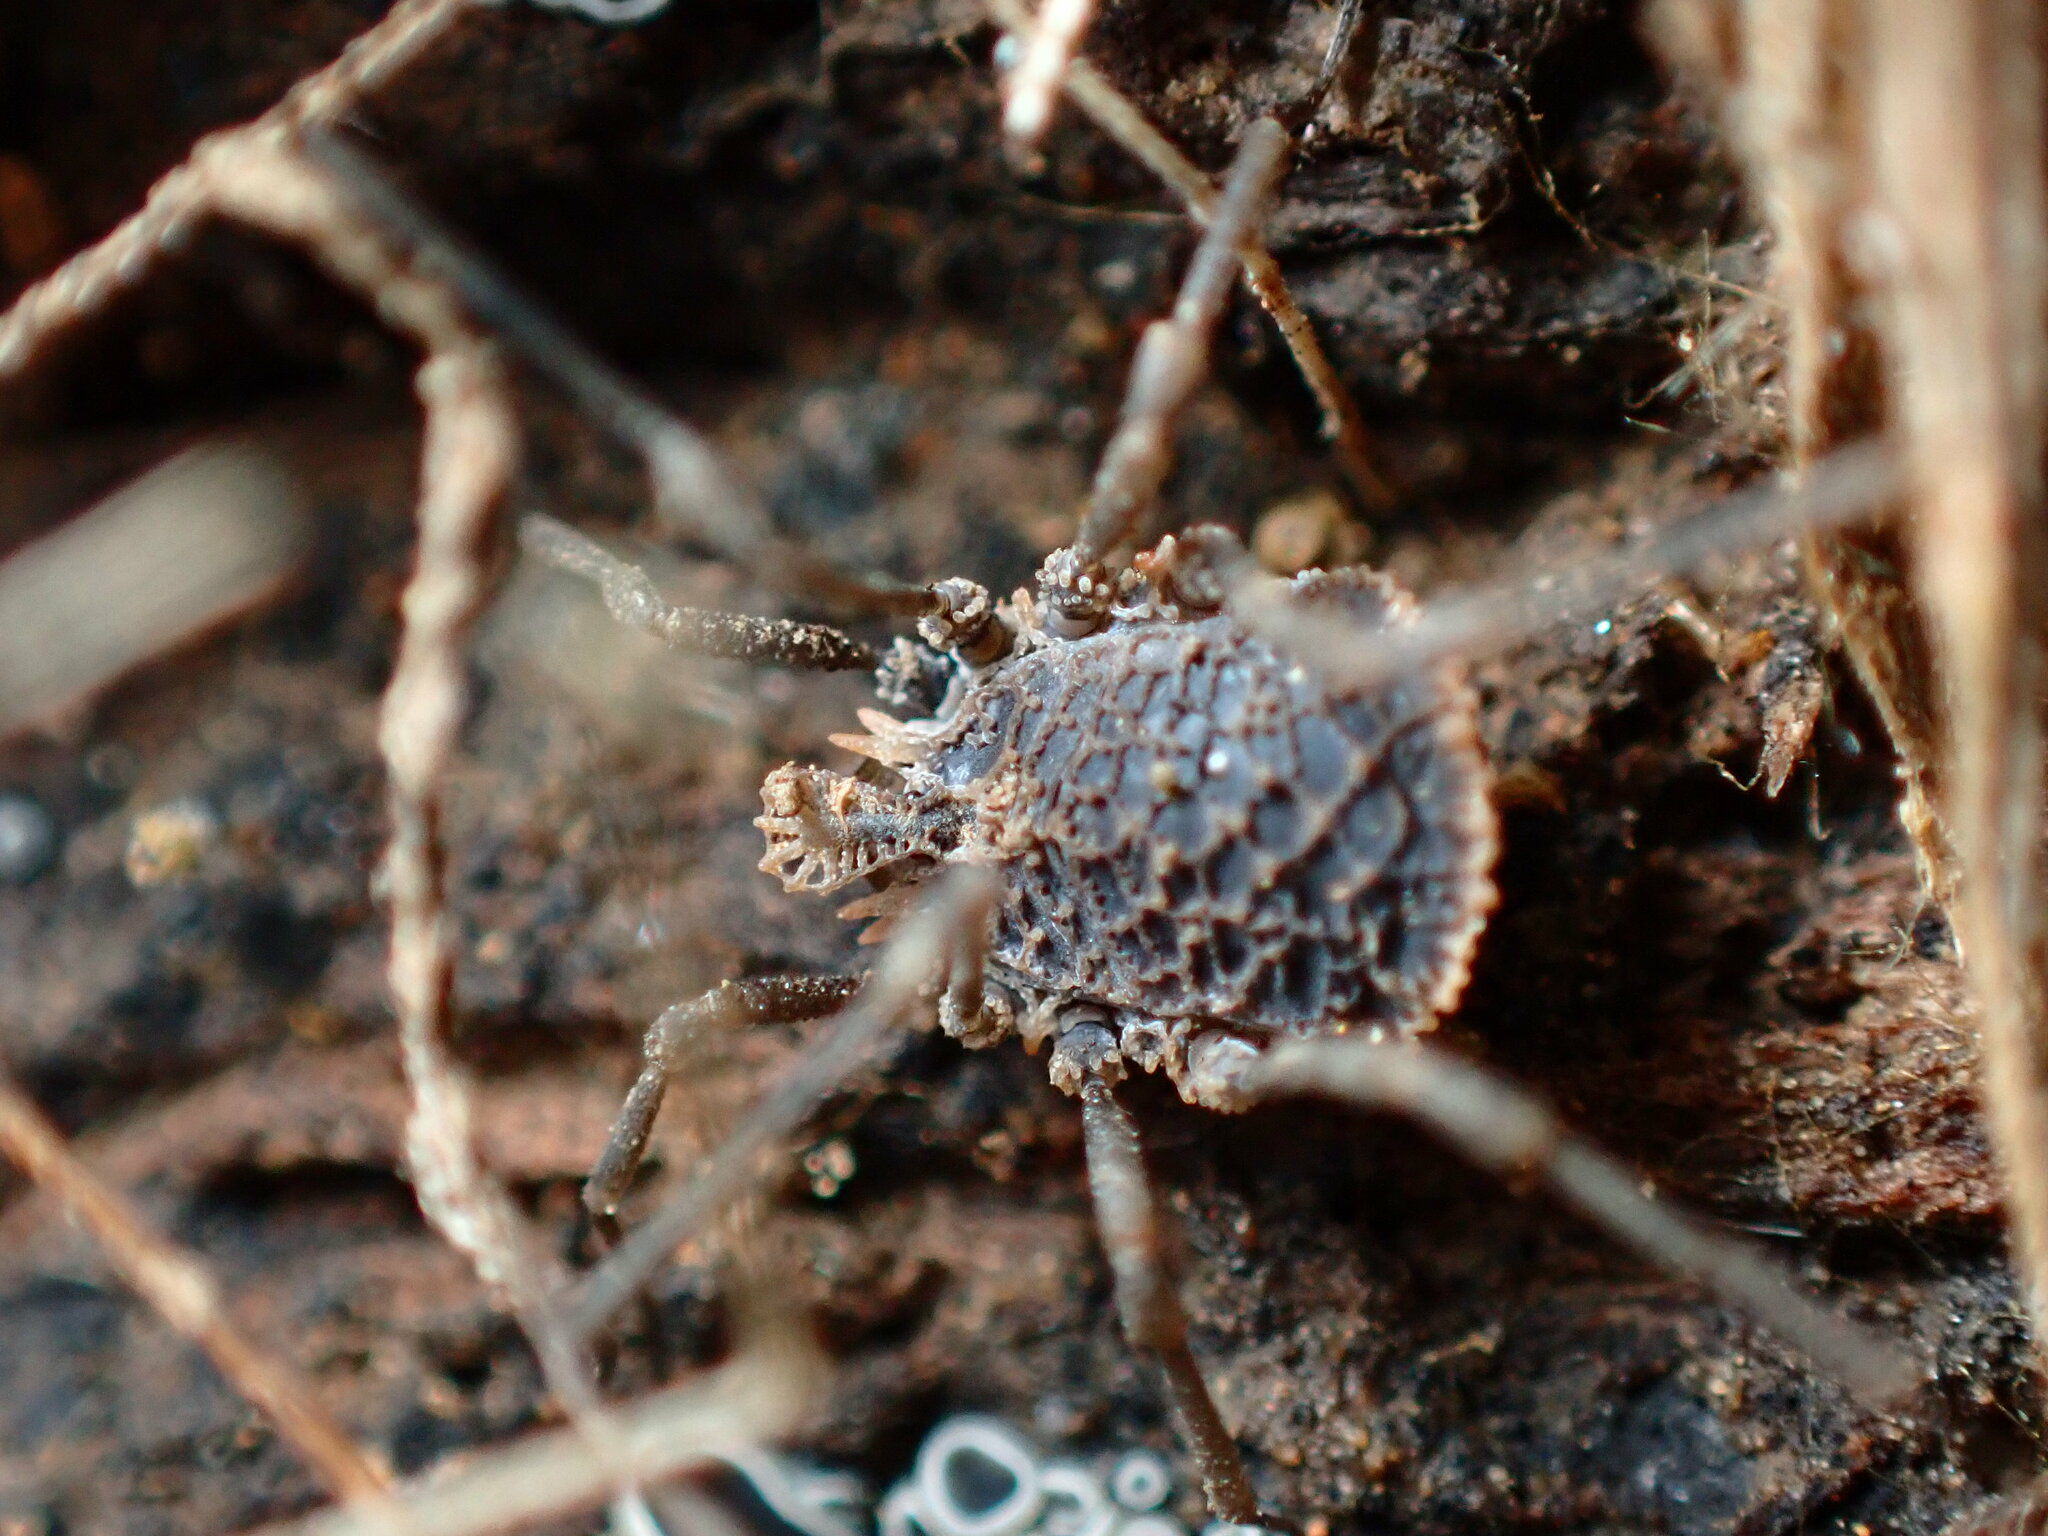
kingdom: Animalia
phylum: Arthropoda
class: Arachnida
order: Opiliones
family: Nemastomatidae
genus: Ortholasma
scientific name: Ortholasma rugosum
